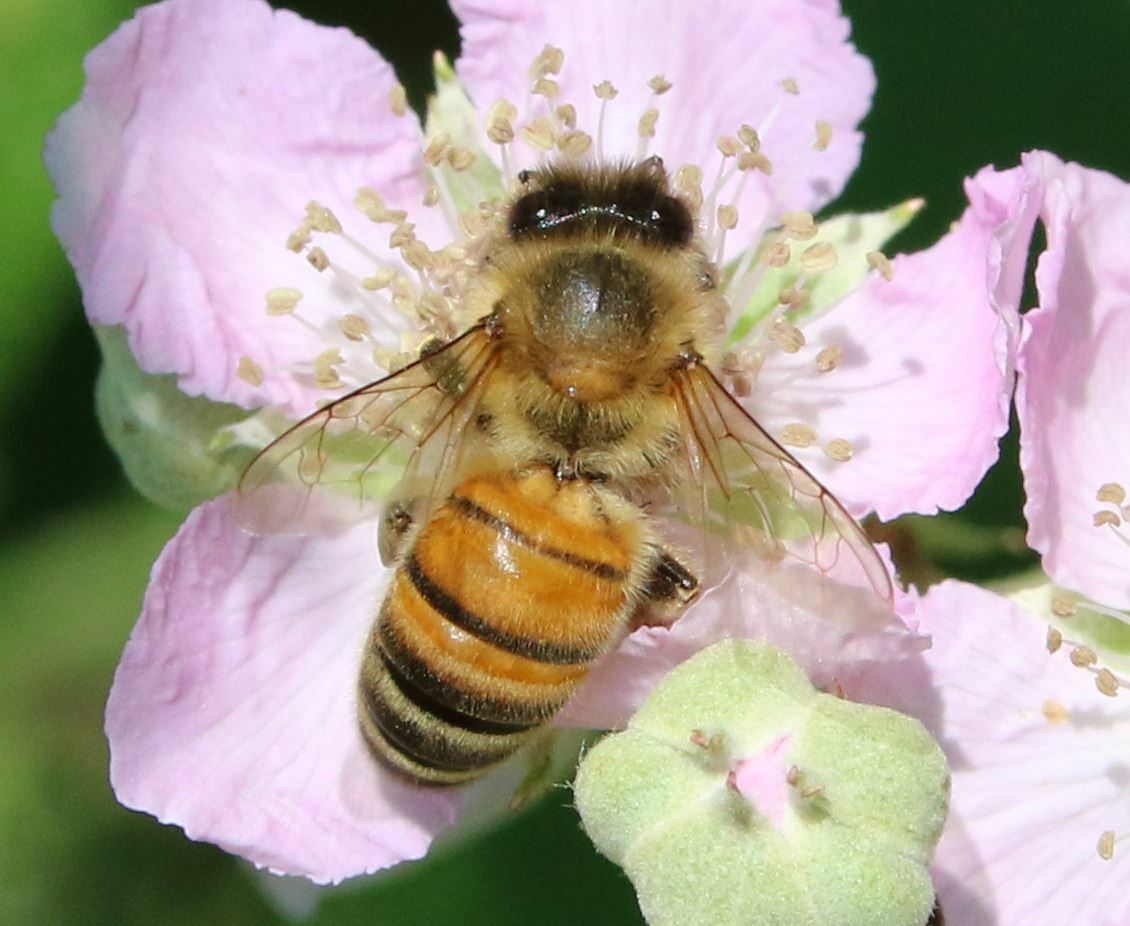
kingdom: Animalia
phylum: Arthropoda
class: Insecta
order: Hymenoptera
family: Apidae
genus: Apis
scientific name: Apis mellifera
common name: Honey bee
